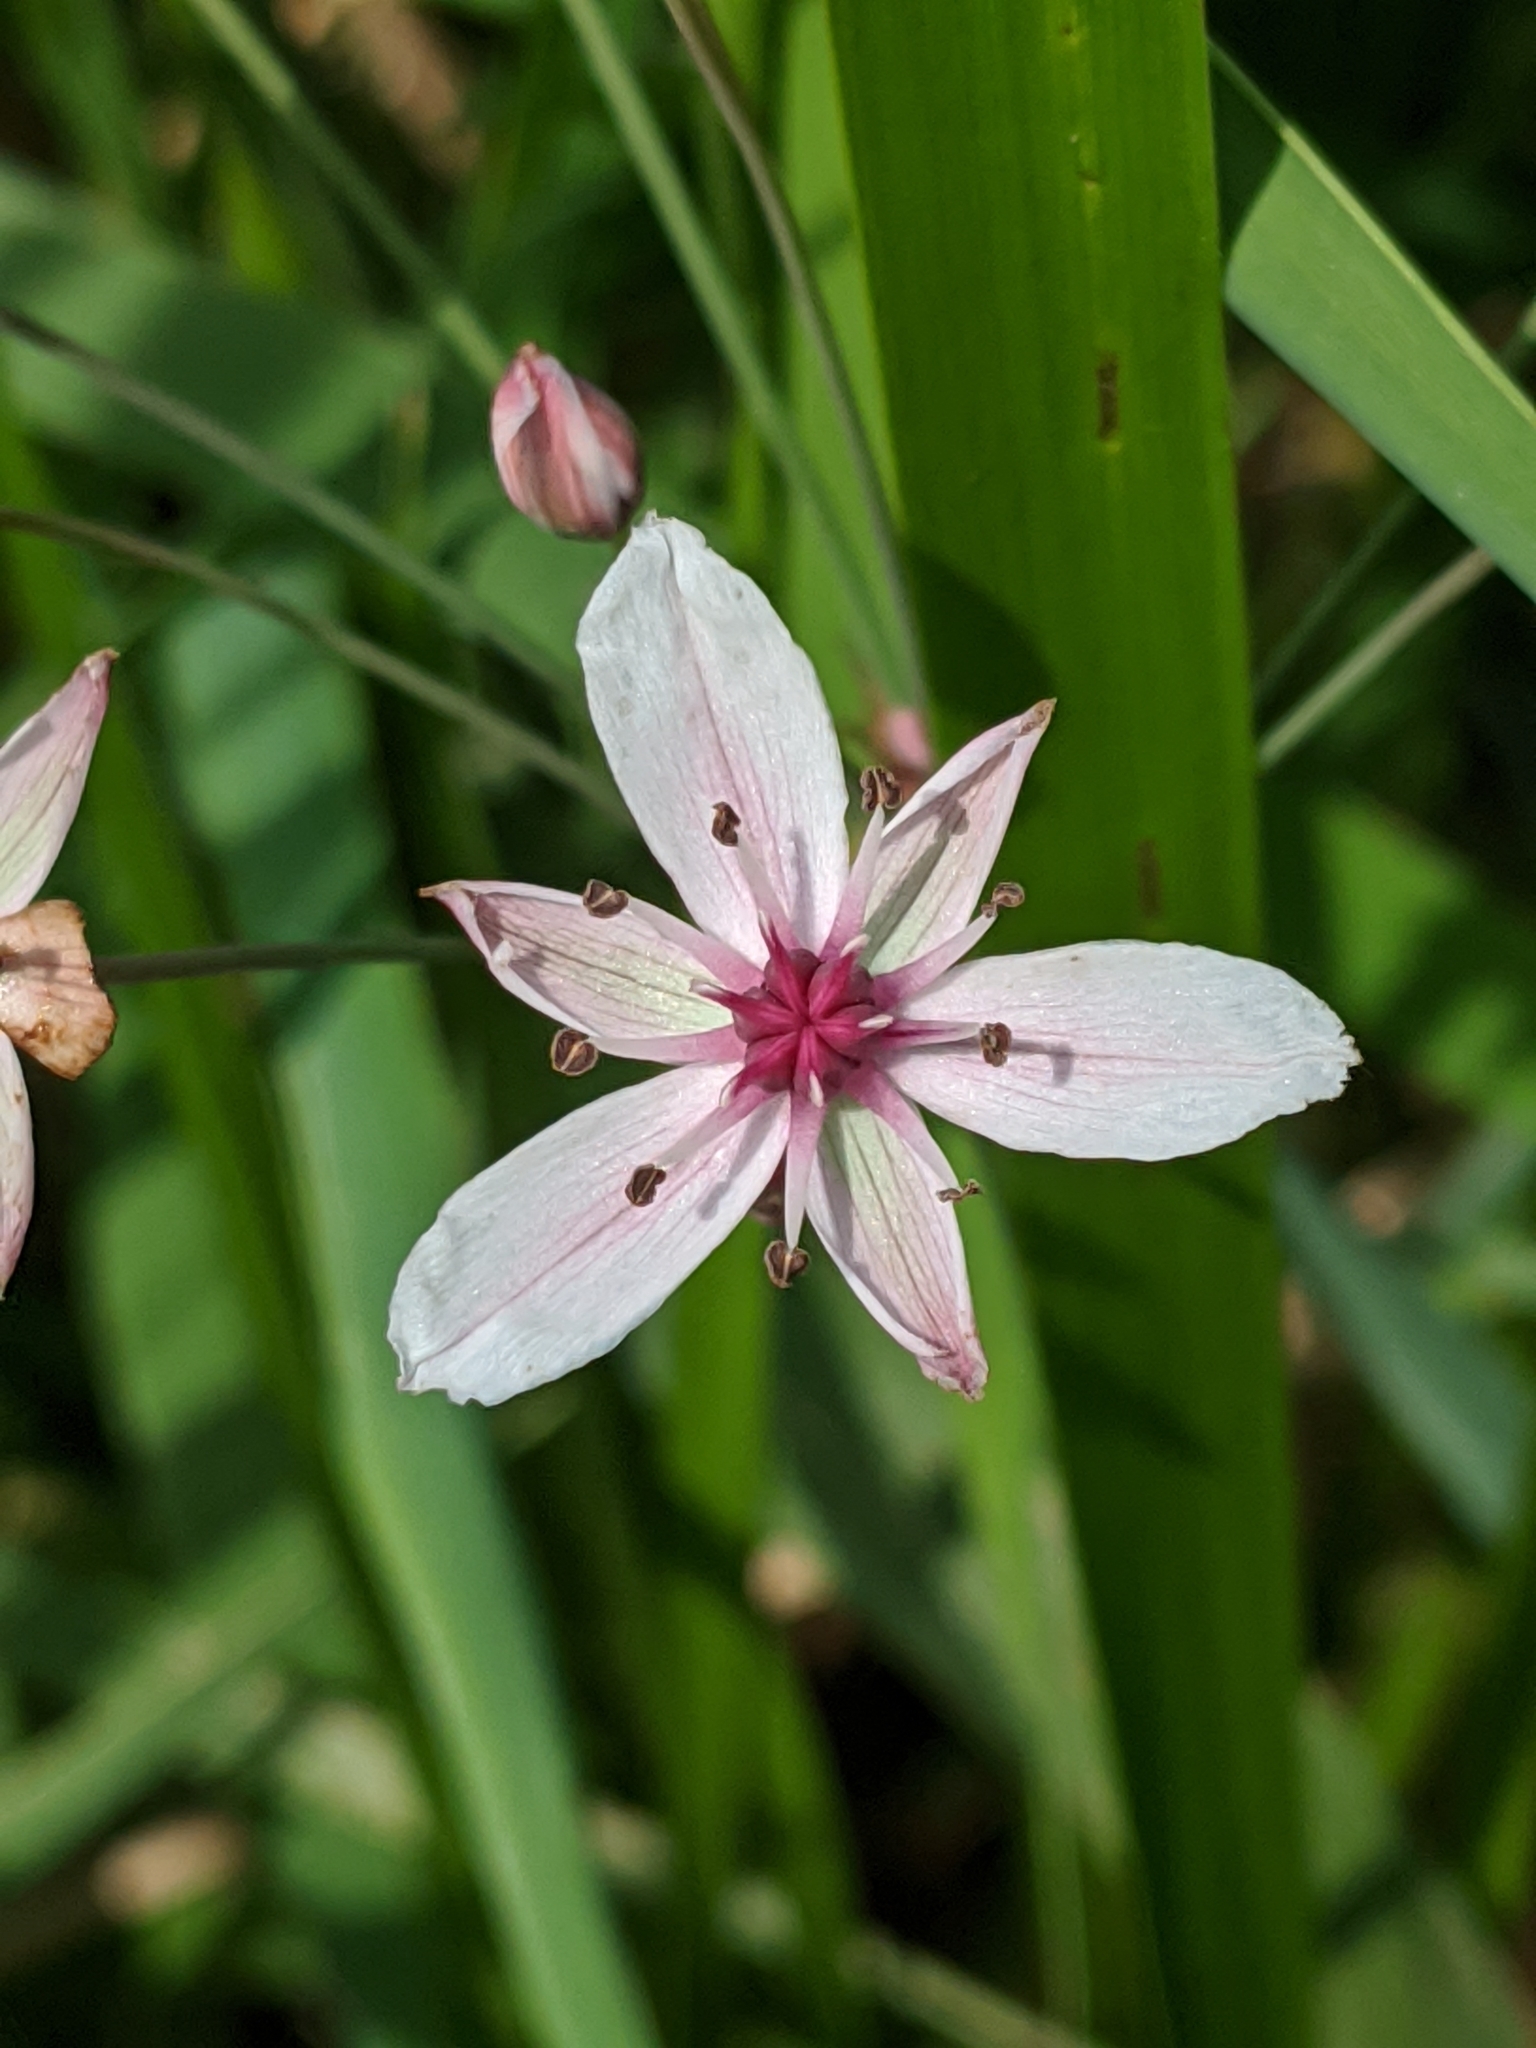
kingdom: Plantae
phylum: Tracheophyta
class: Liliopsida
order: Alismatales
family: Butomaceae
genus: Butomus
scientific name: Butomus umbellatus
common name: Flowering-rush
